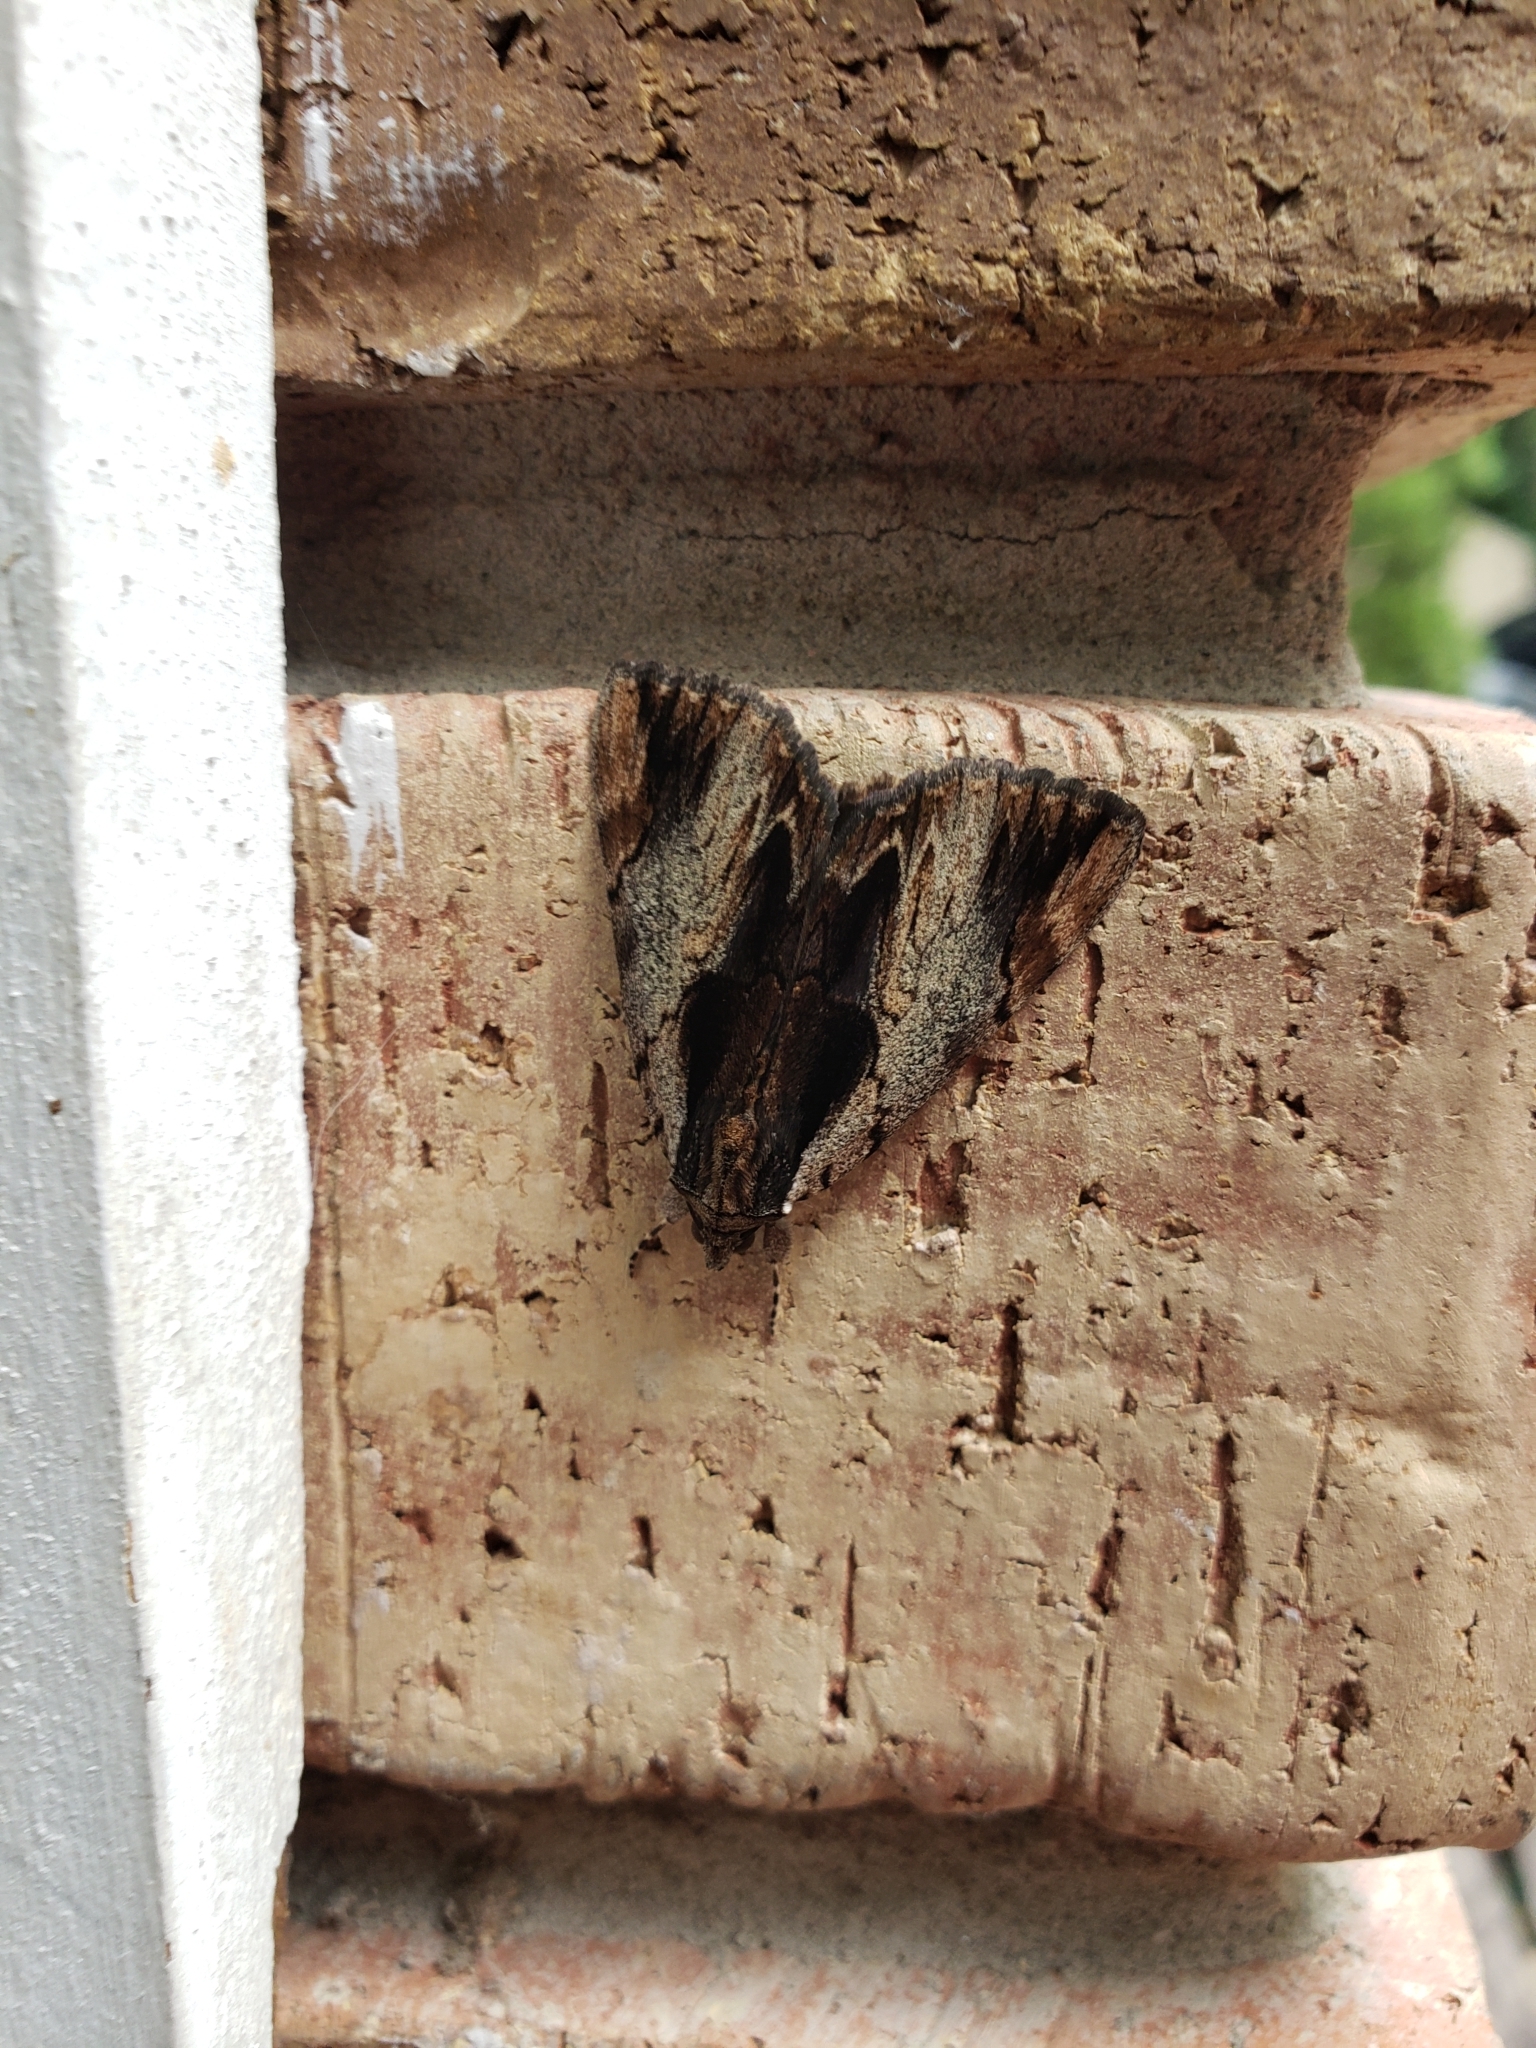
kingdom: Animalia
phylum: Arthropoda
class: Insecta
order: Lepidoptera
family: Erebidae
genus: Catocala
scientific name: Catocala ultronia
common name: Ultronia underwing
